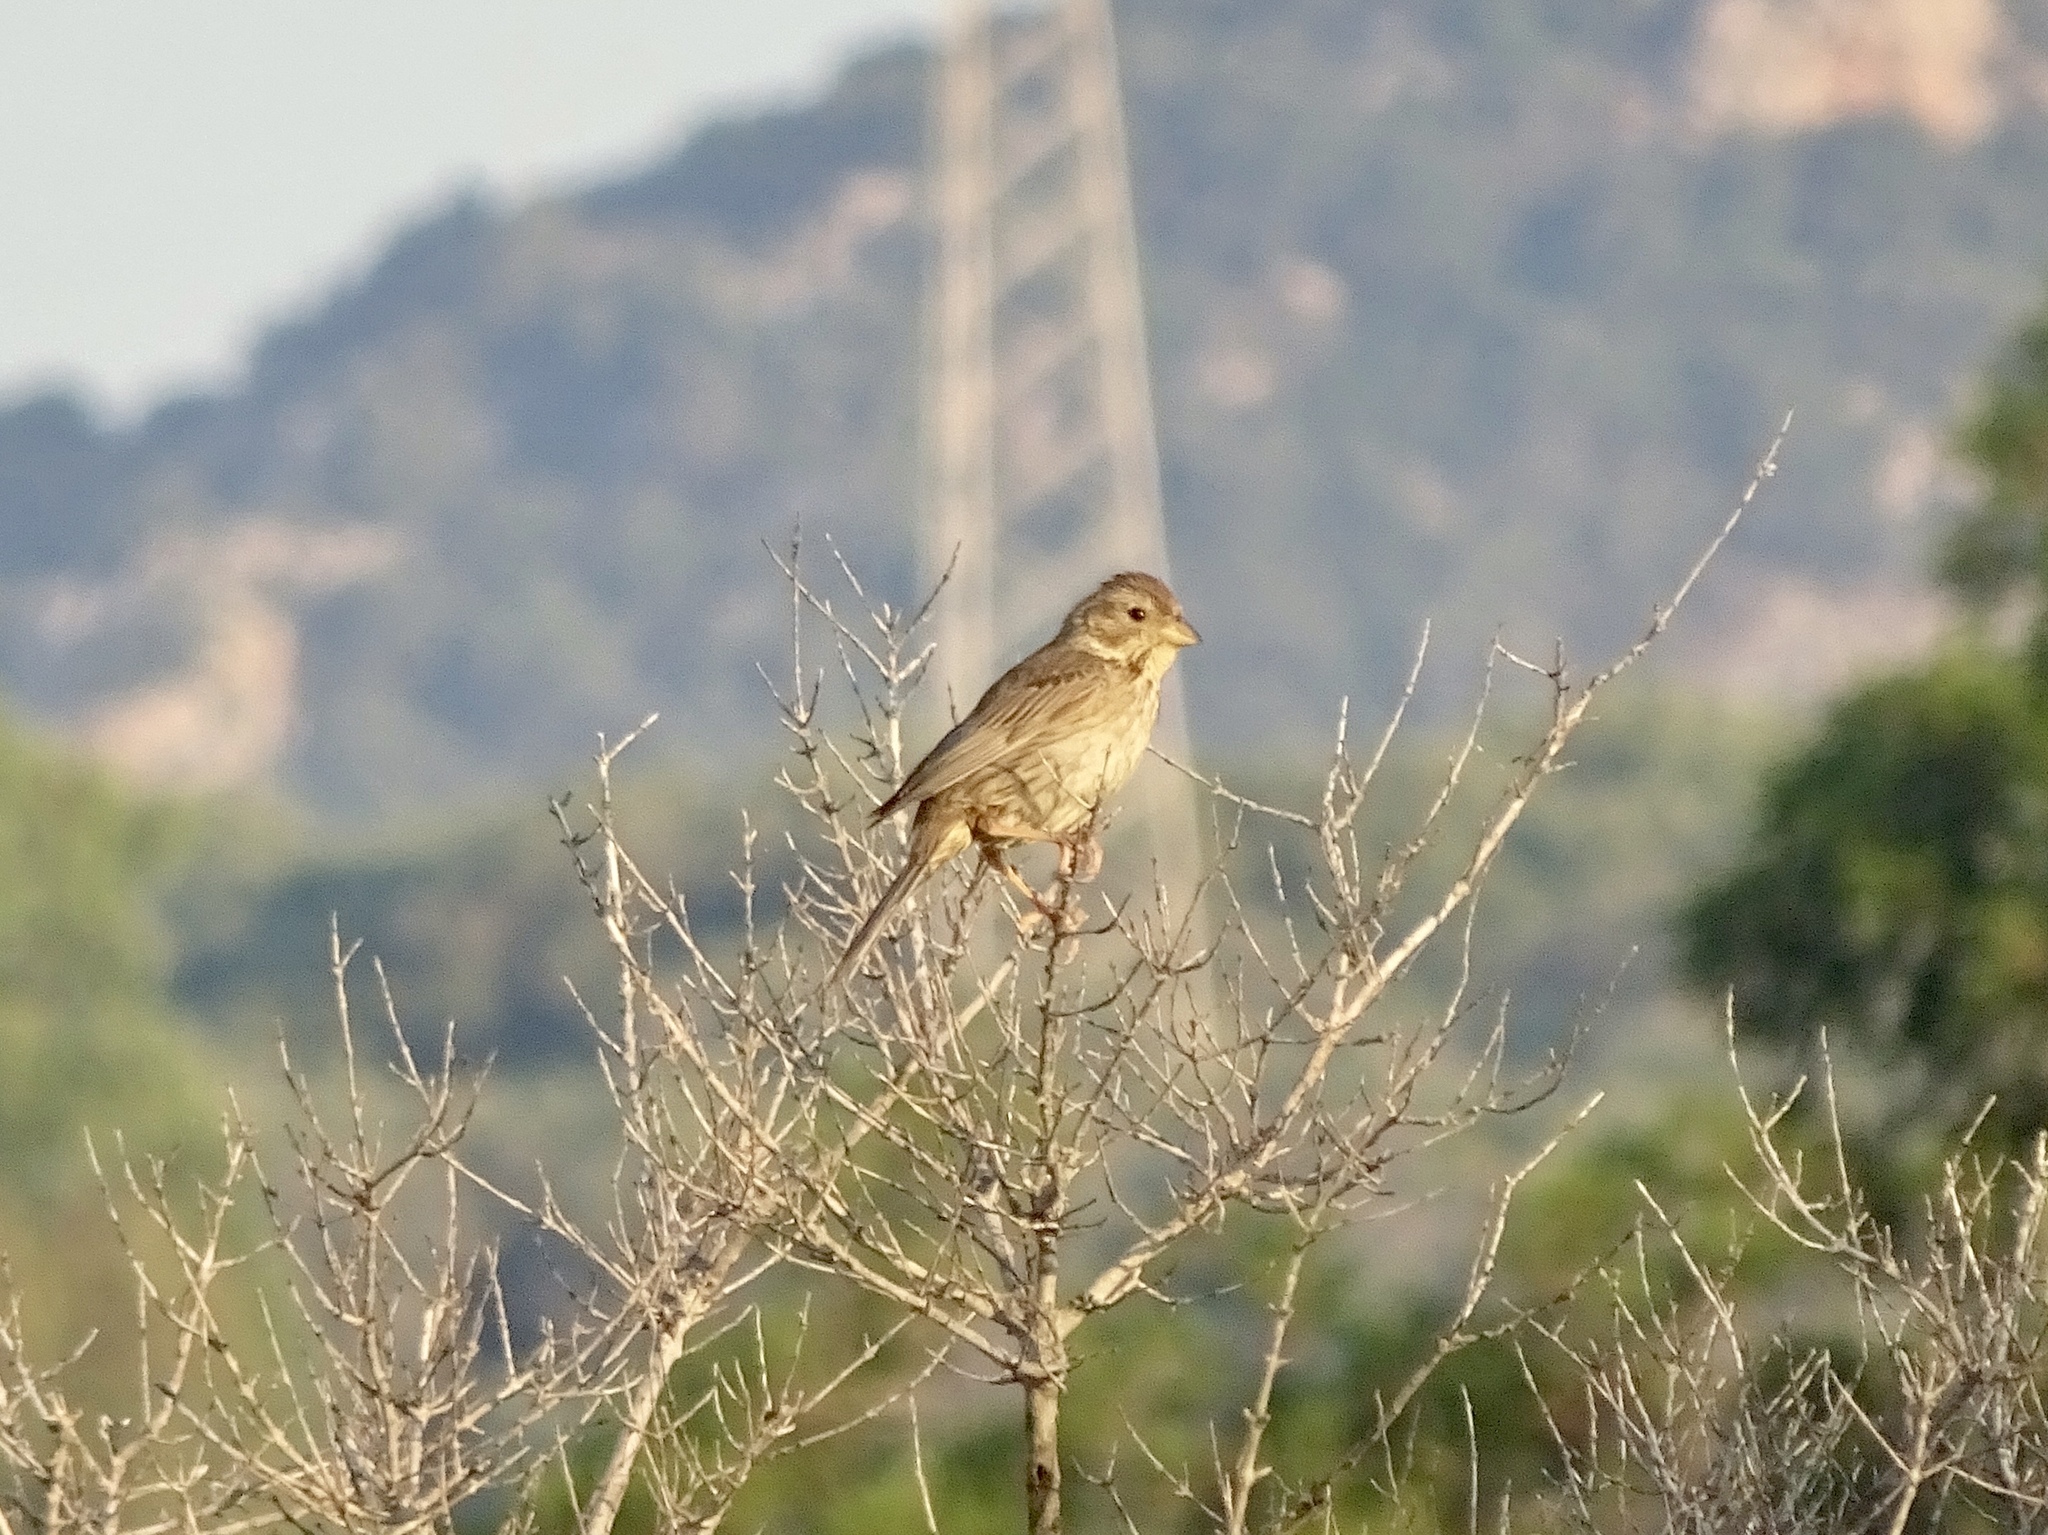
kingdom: Animalia
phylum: Chordata
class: Aves
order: Passeriformes
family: Emberizidae
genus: Emberiza
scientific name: Emberiza calandra
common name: Corn bunting
